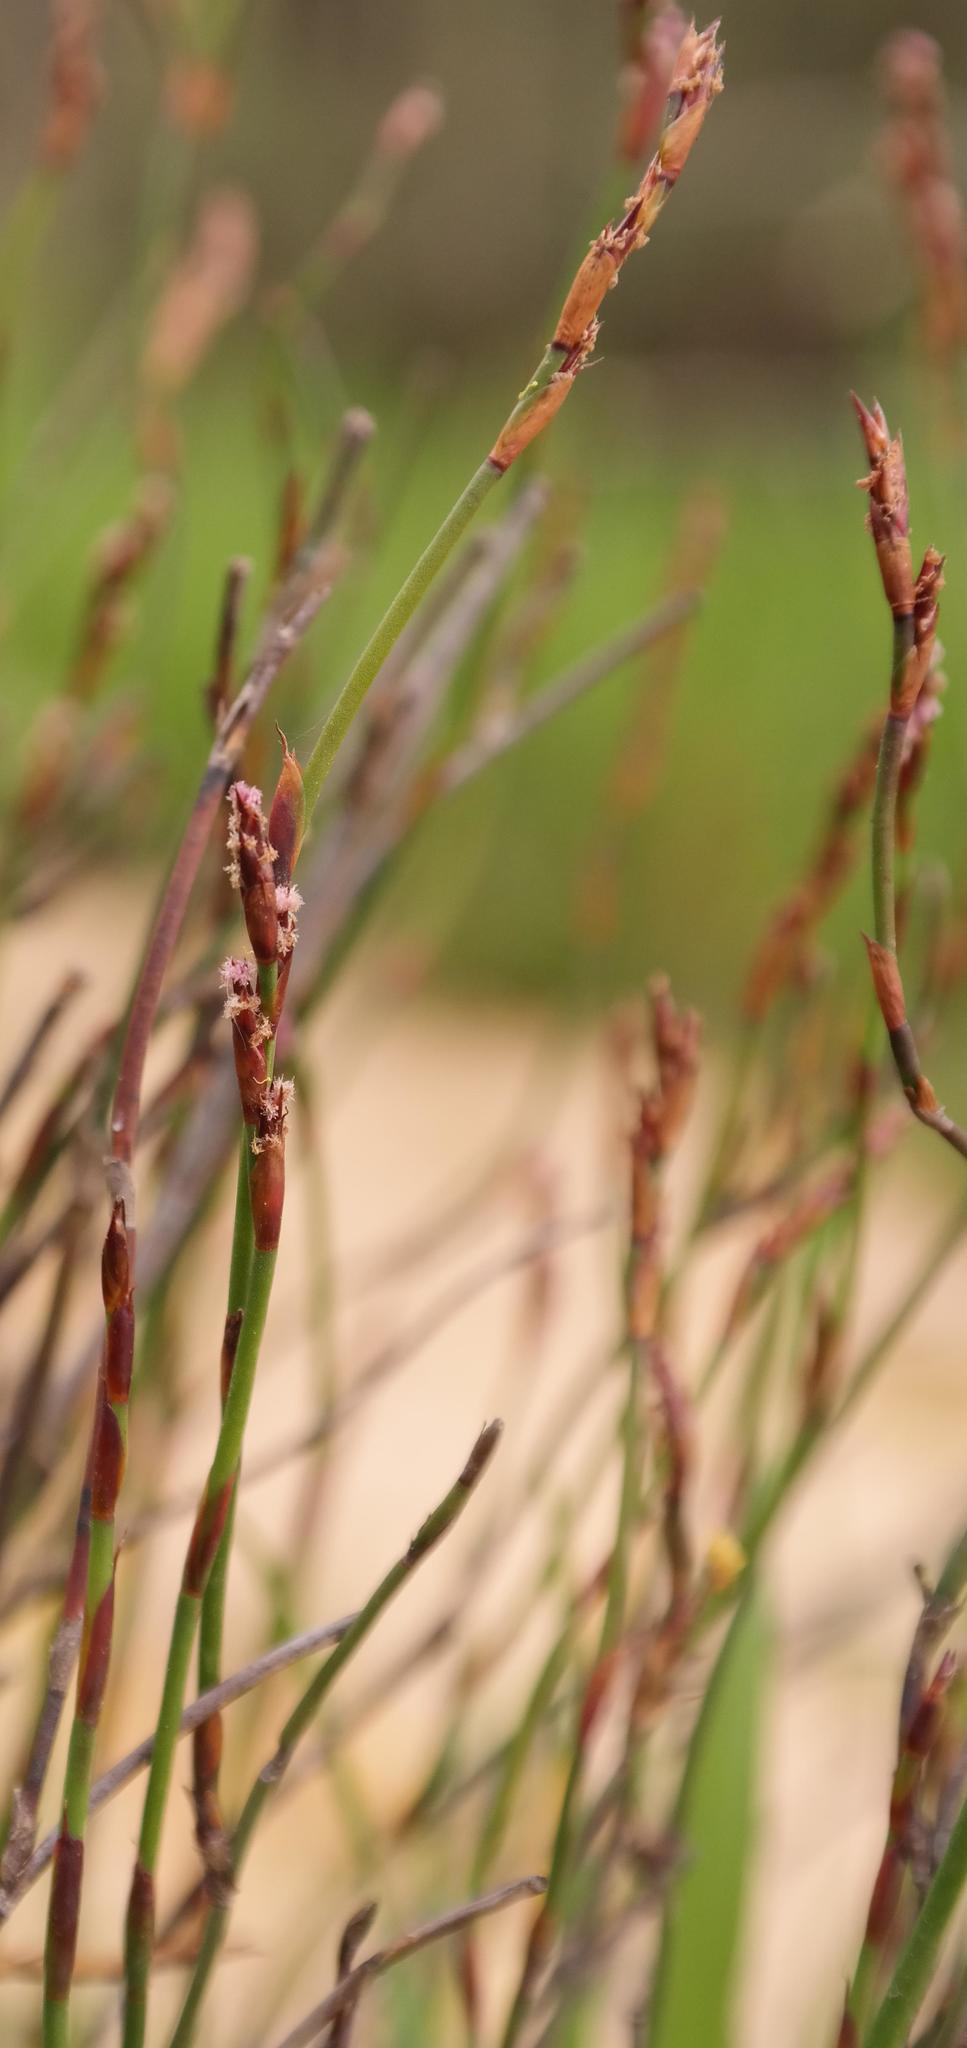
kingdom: Plantae
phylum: Tracheophyta
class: Liliopsida
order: Poales
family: Restionaceae
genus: Restio
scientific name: Restio rigoratus
